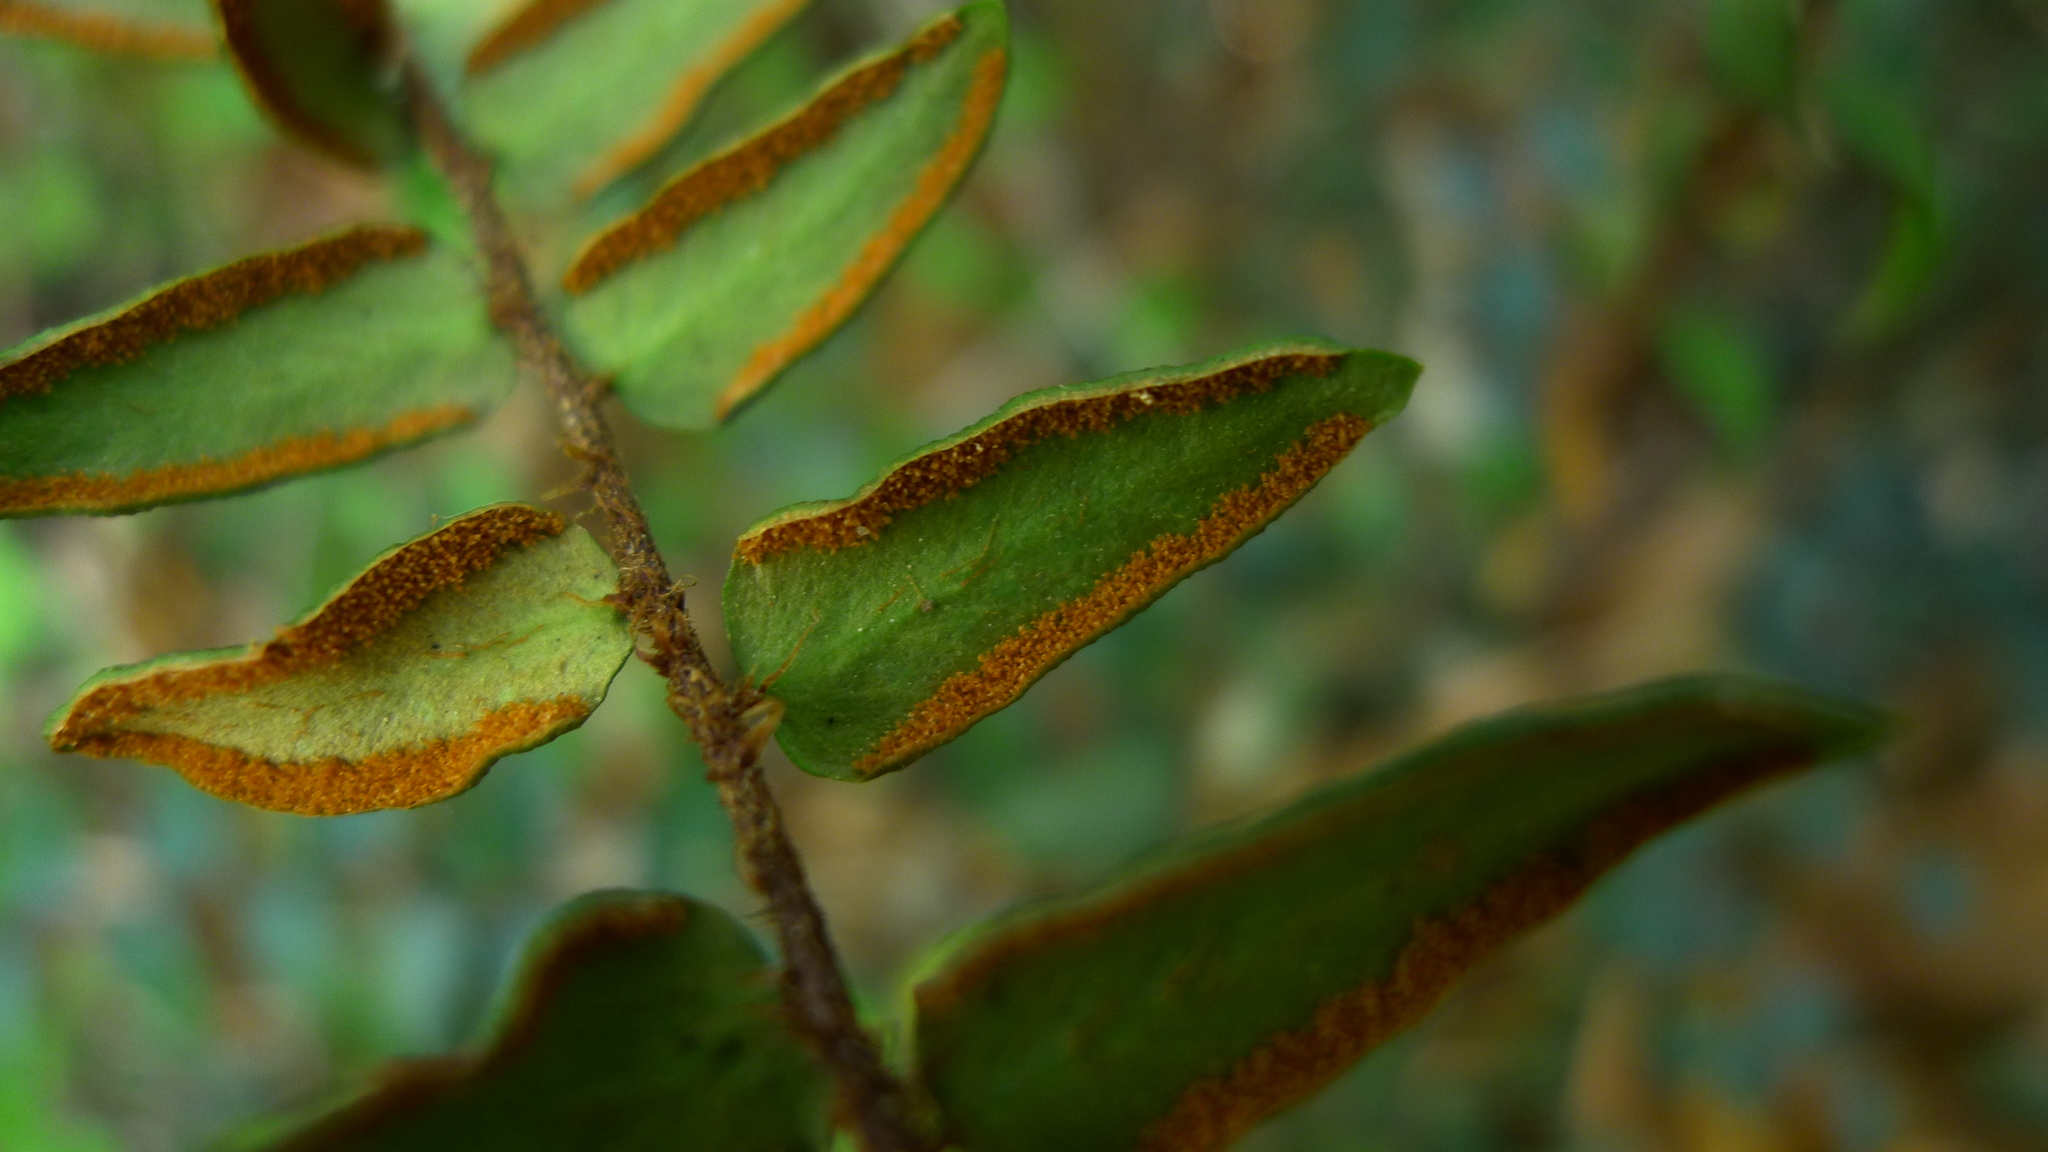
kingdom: Plantae
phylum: Tracheophyta
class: Polypodiopsida
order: Polypodiales
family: Pteridaceae
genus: Pellaea
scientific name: Pellaea rotundifolia
